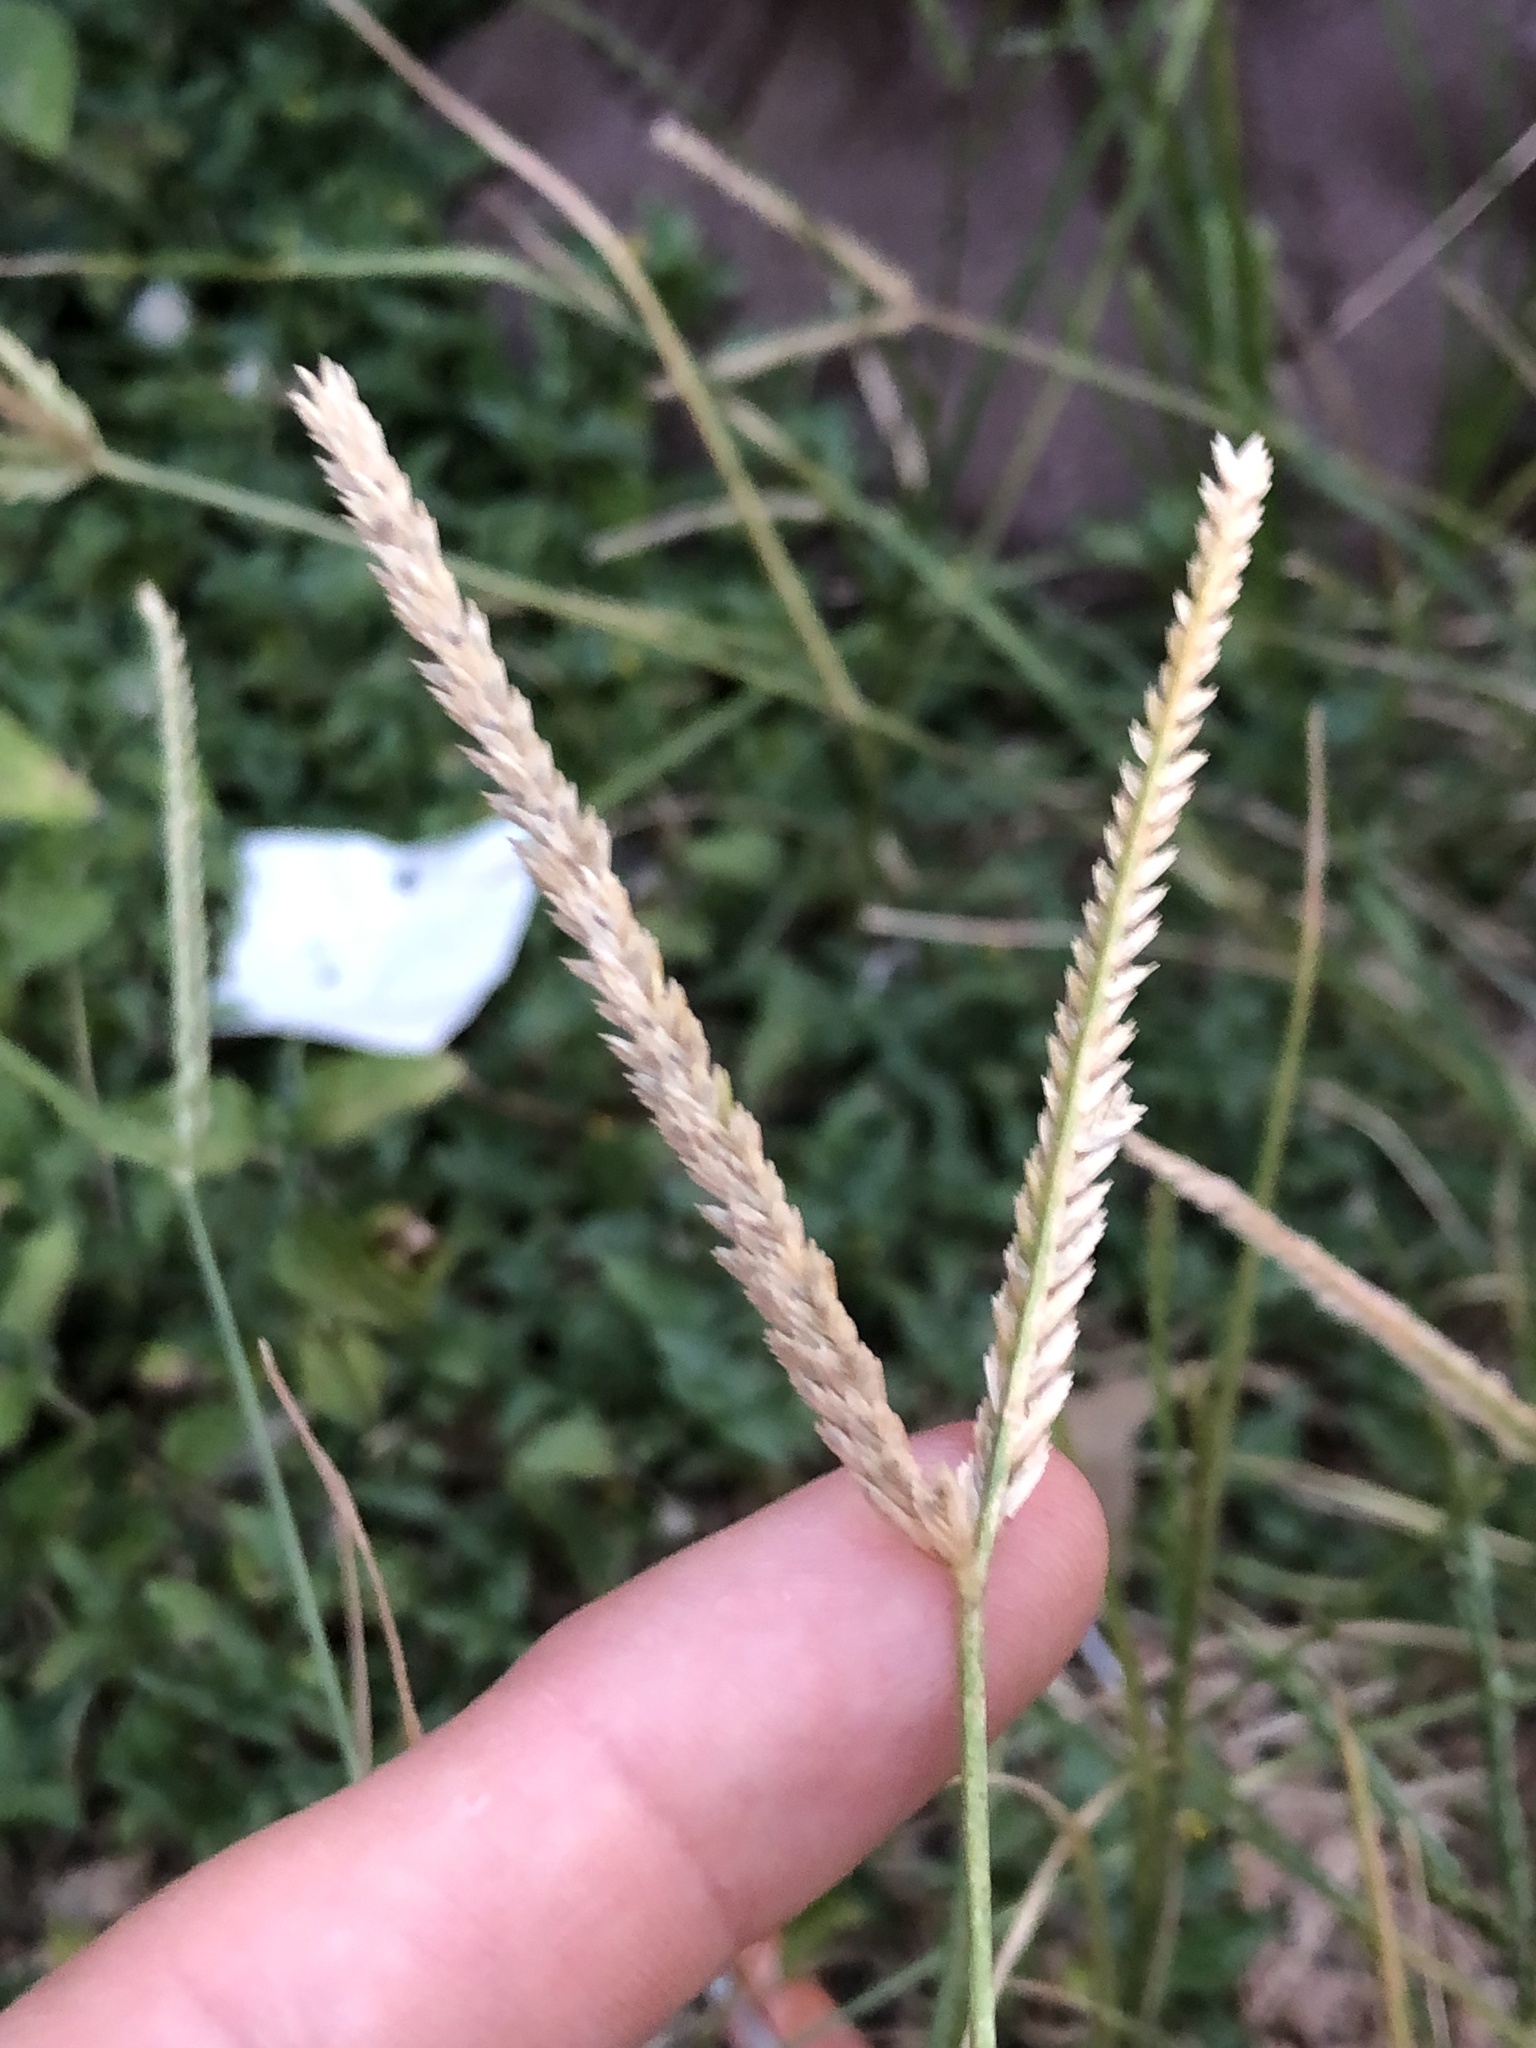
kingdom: Plantae
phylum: Tracheophyta
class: Liliopsida
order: Poales
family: Poaceae
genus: Eleusine
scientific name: Eleusine indica
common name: Yard-grass
